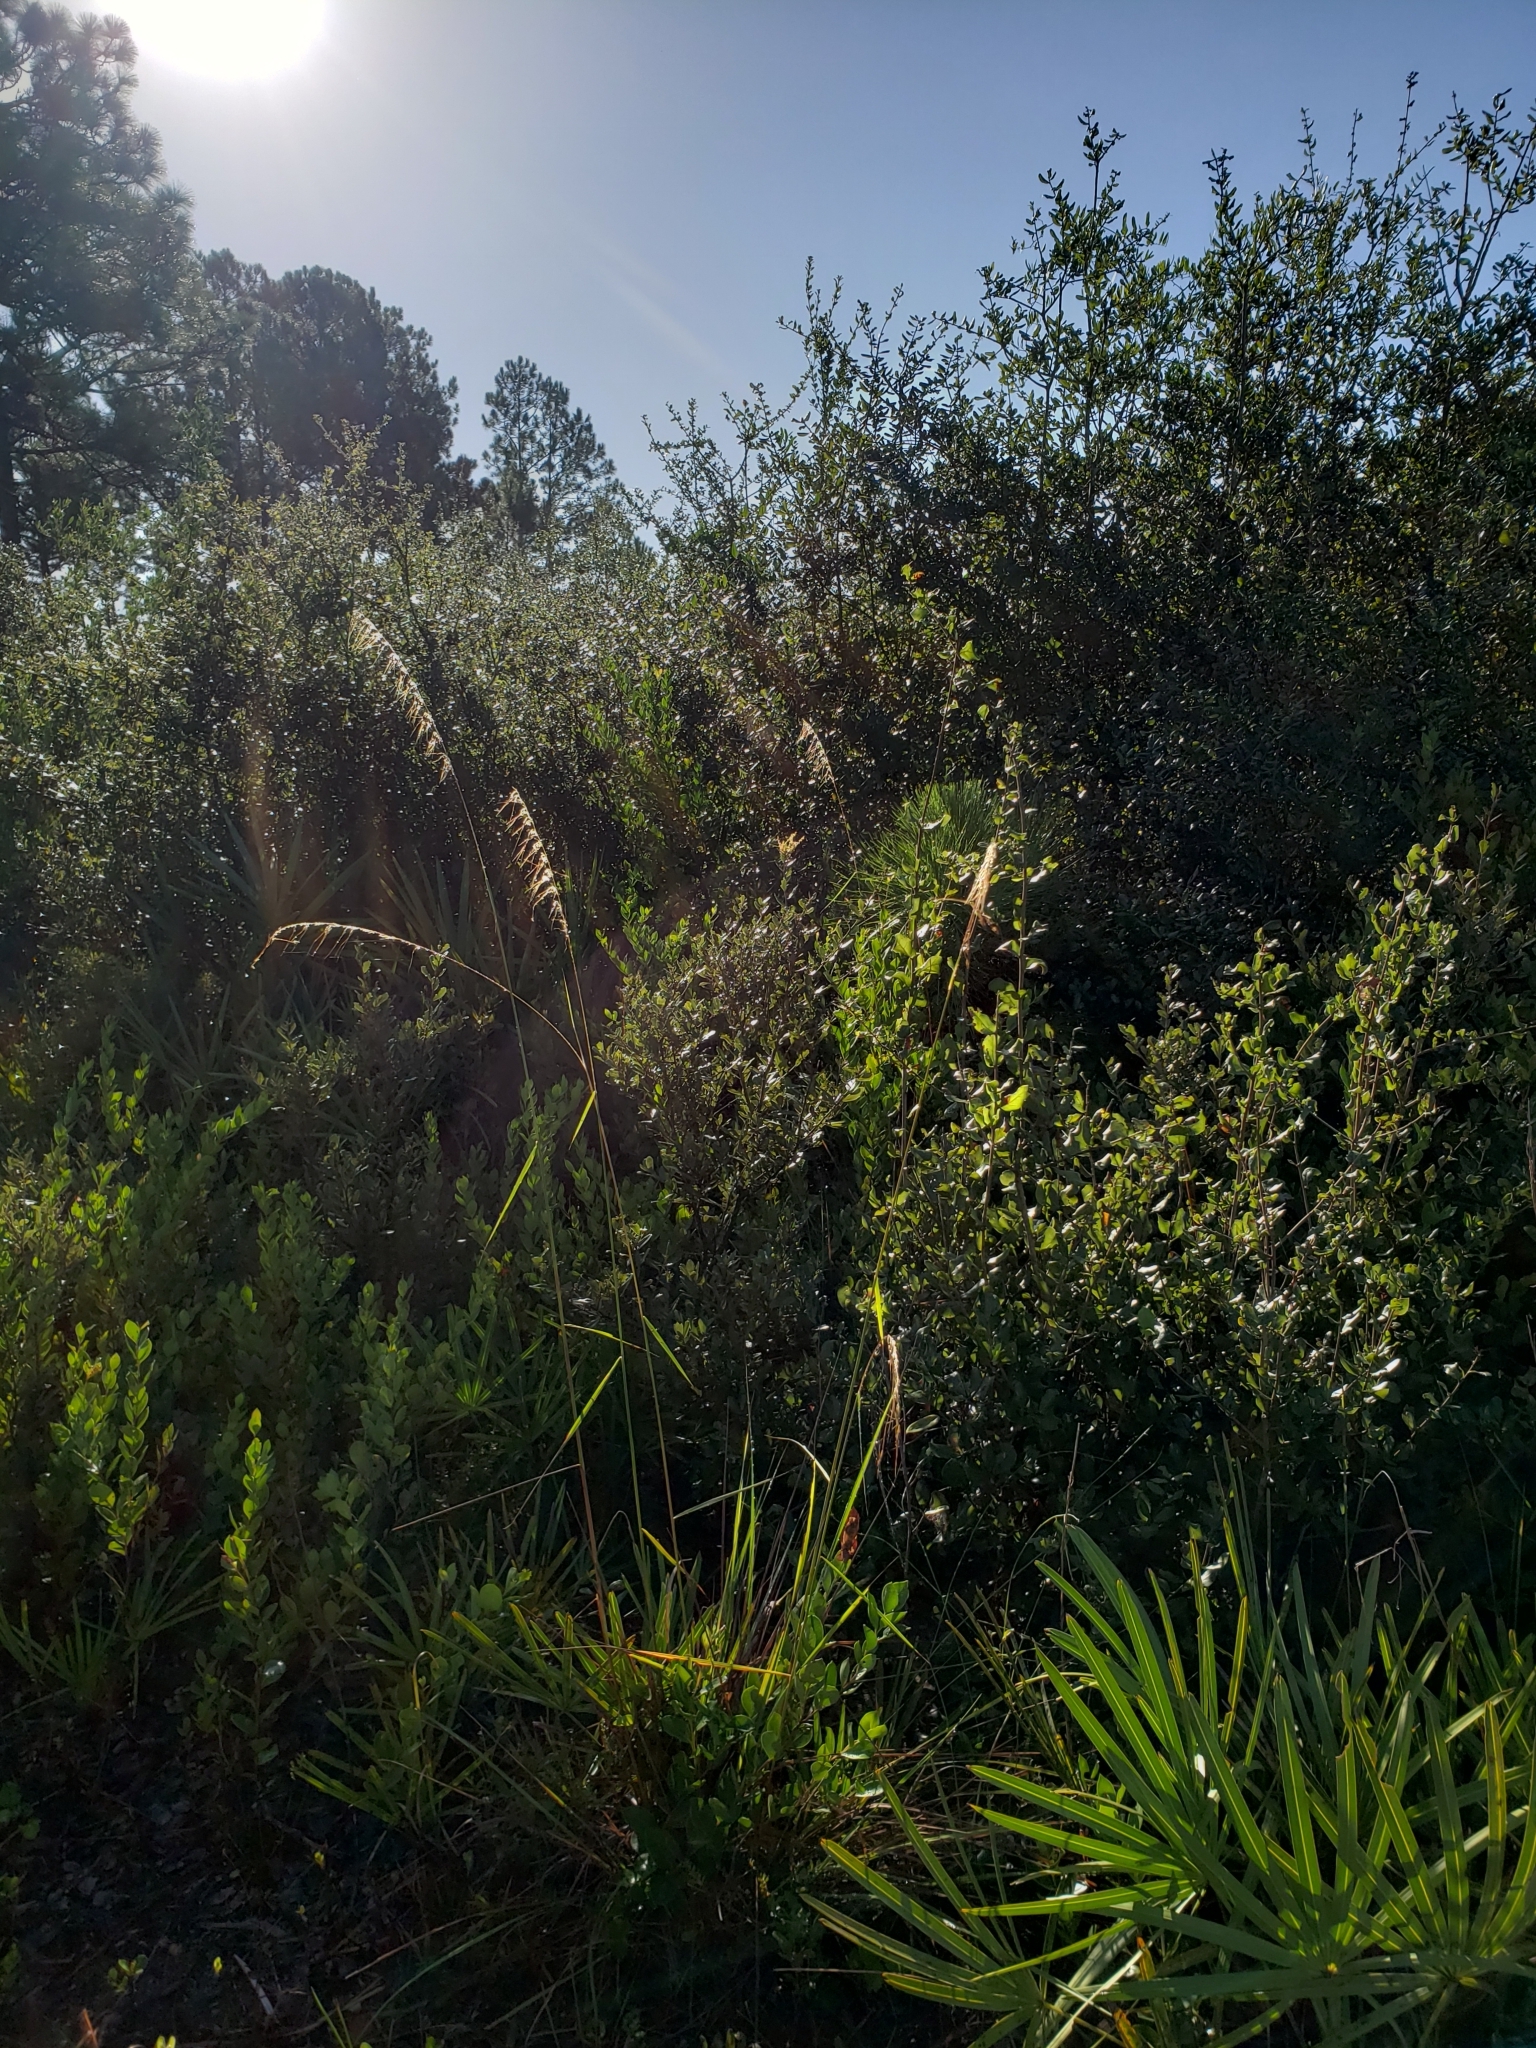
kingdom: Plantae
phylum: Tracheophyta
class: Liliopsida
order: Poales
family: Poaceae
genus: Sorghastrum
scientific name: Sorghastrum secundum
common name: Lopsided indian grass
